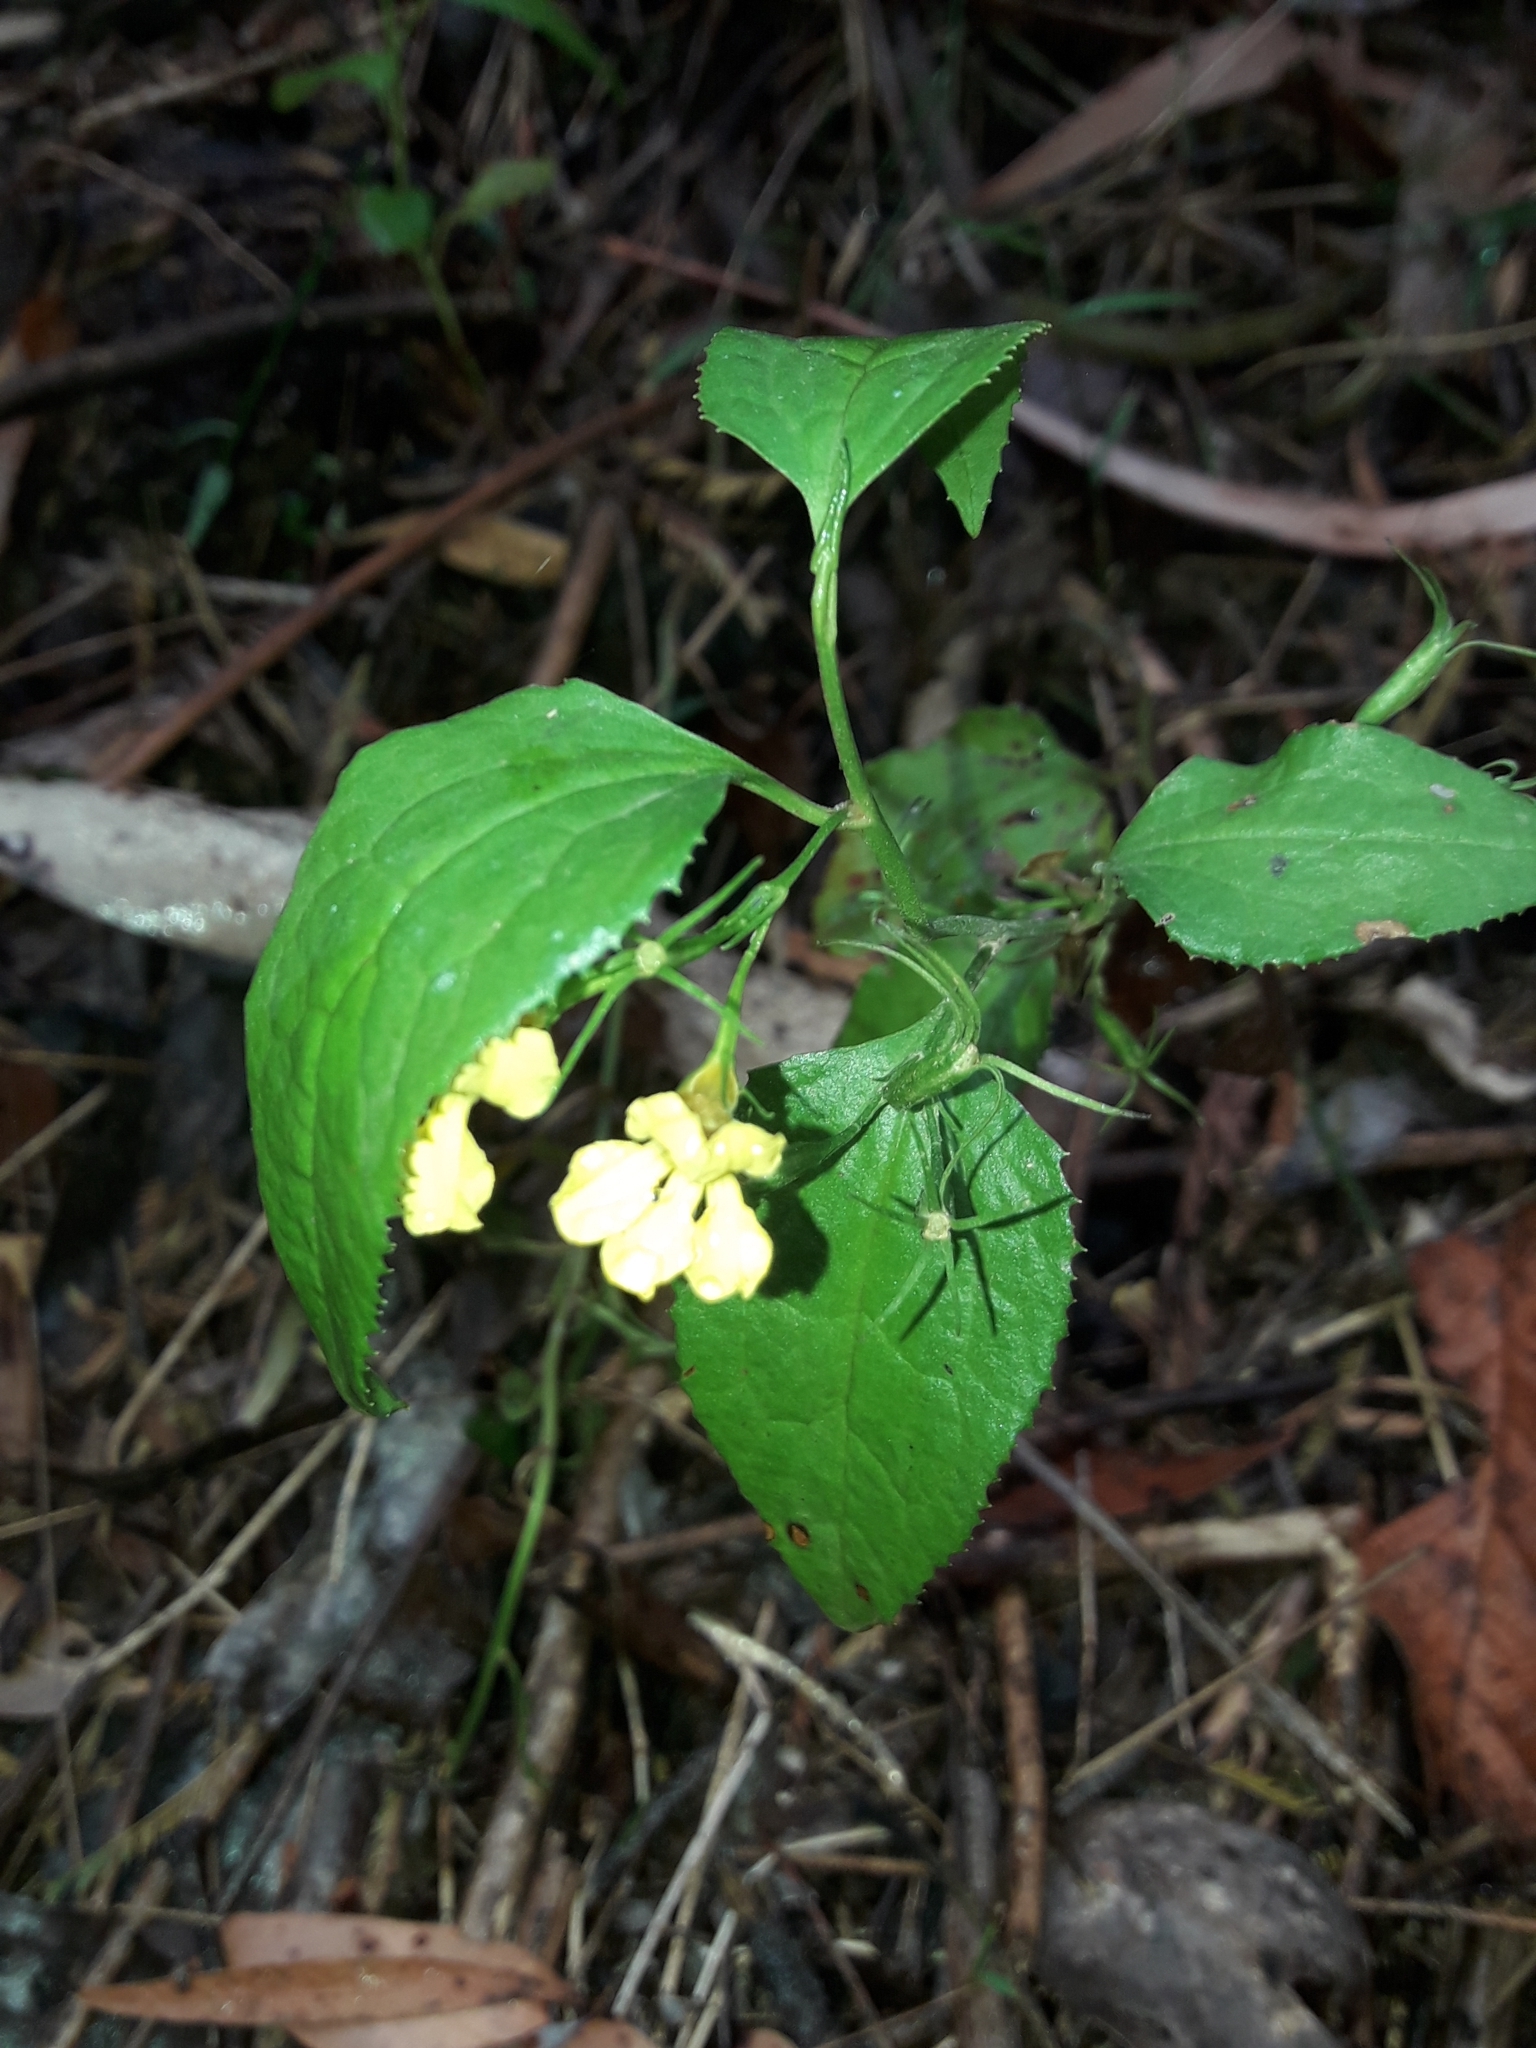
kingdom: Plantae
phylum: Tracheophyta
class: Magnoliopsida
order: Asterales
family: Goodeniaceae
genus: Goodenia
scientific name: Goodenia ovata
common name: Hop goodenia
